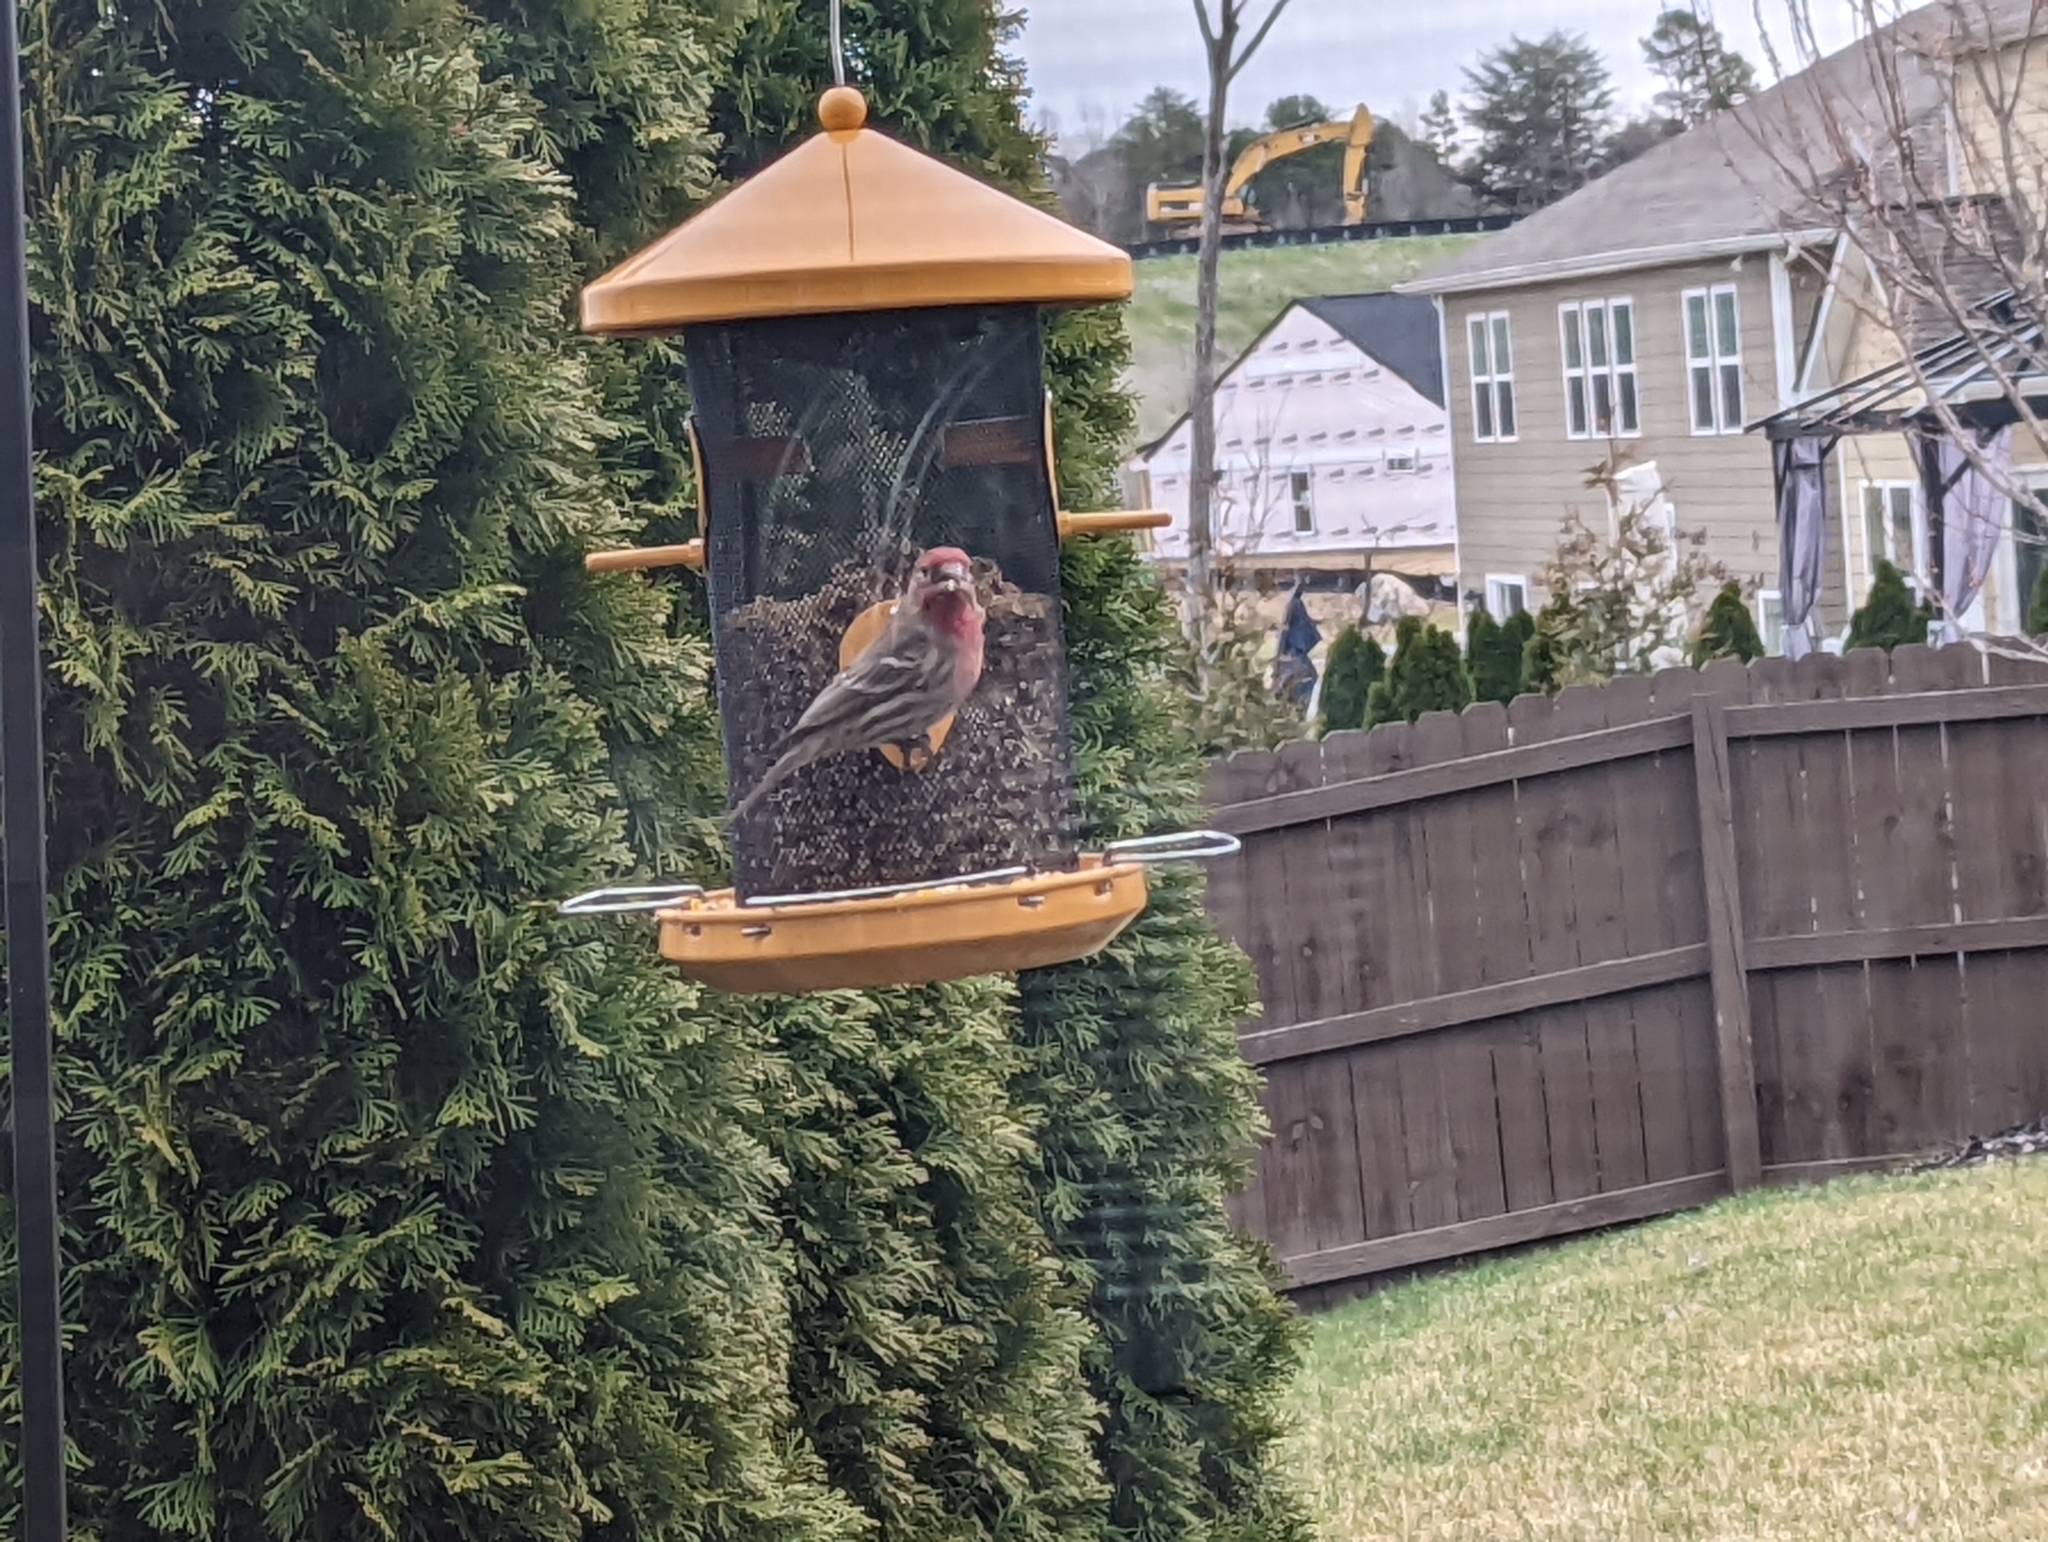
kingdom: Animalia
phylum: Chordata
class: Aves
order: Passeriformes
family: Fringillidae
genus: Haemorhous
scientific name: Haemorhous mexicanus
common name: House finch
